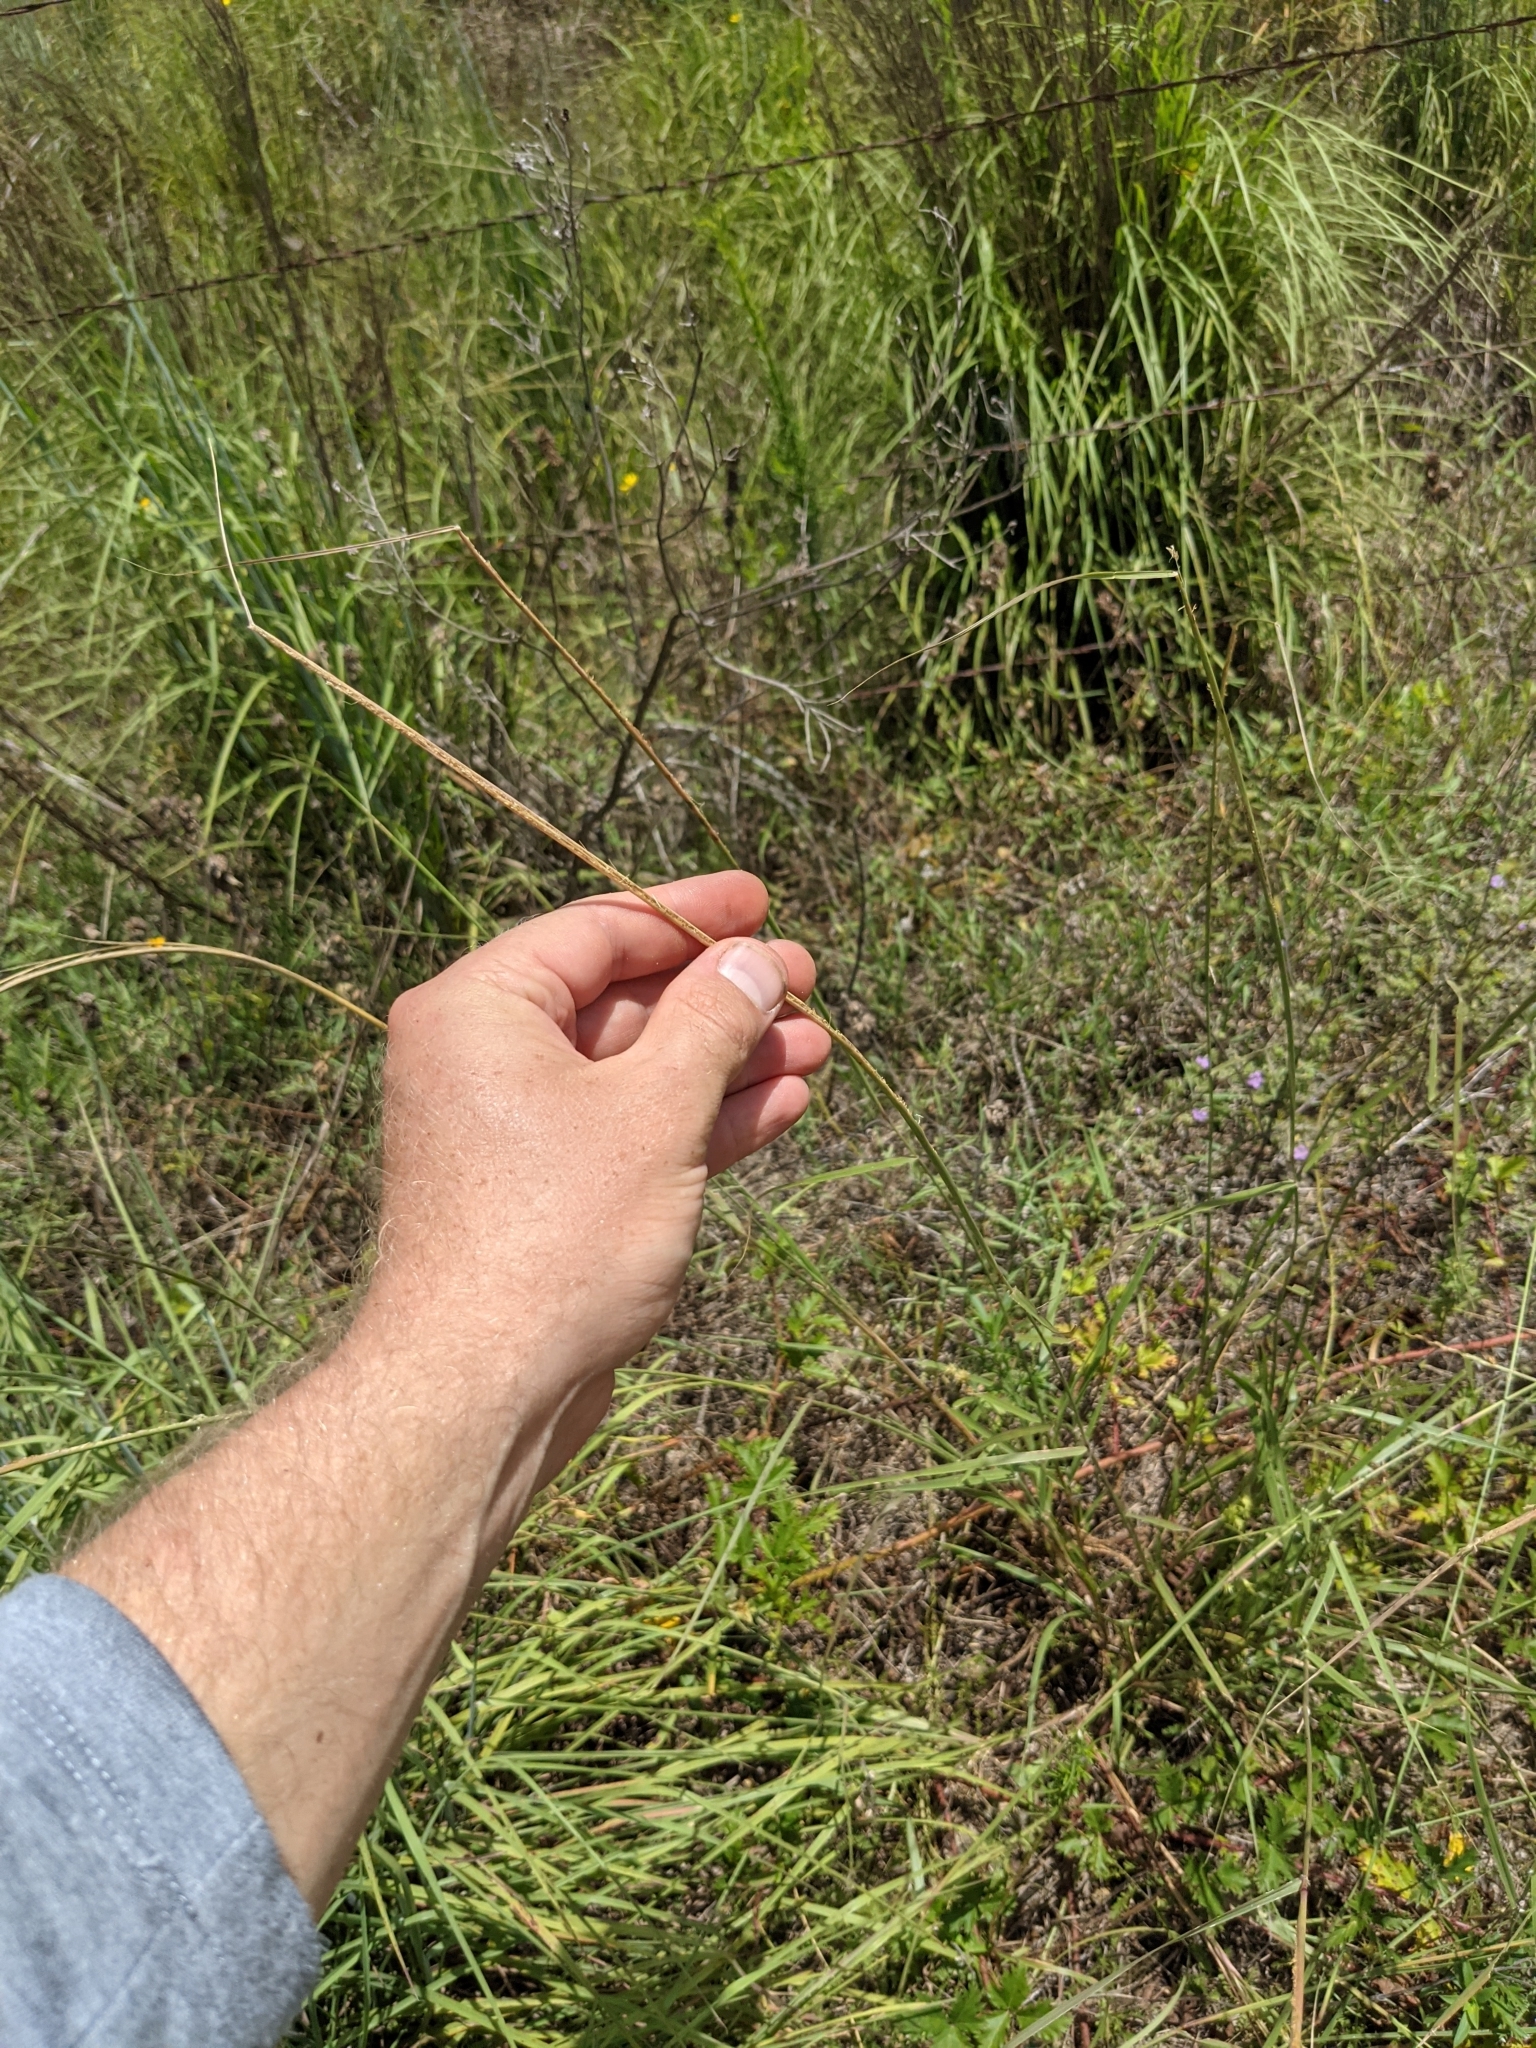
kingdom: Plantae
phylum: Tracheophyta
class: Liliopsida
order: Poales
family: Poaceae
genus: Sporobolus
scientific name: Sporobolus cryptandrus
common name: Sand dropseed
